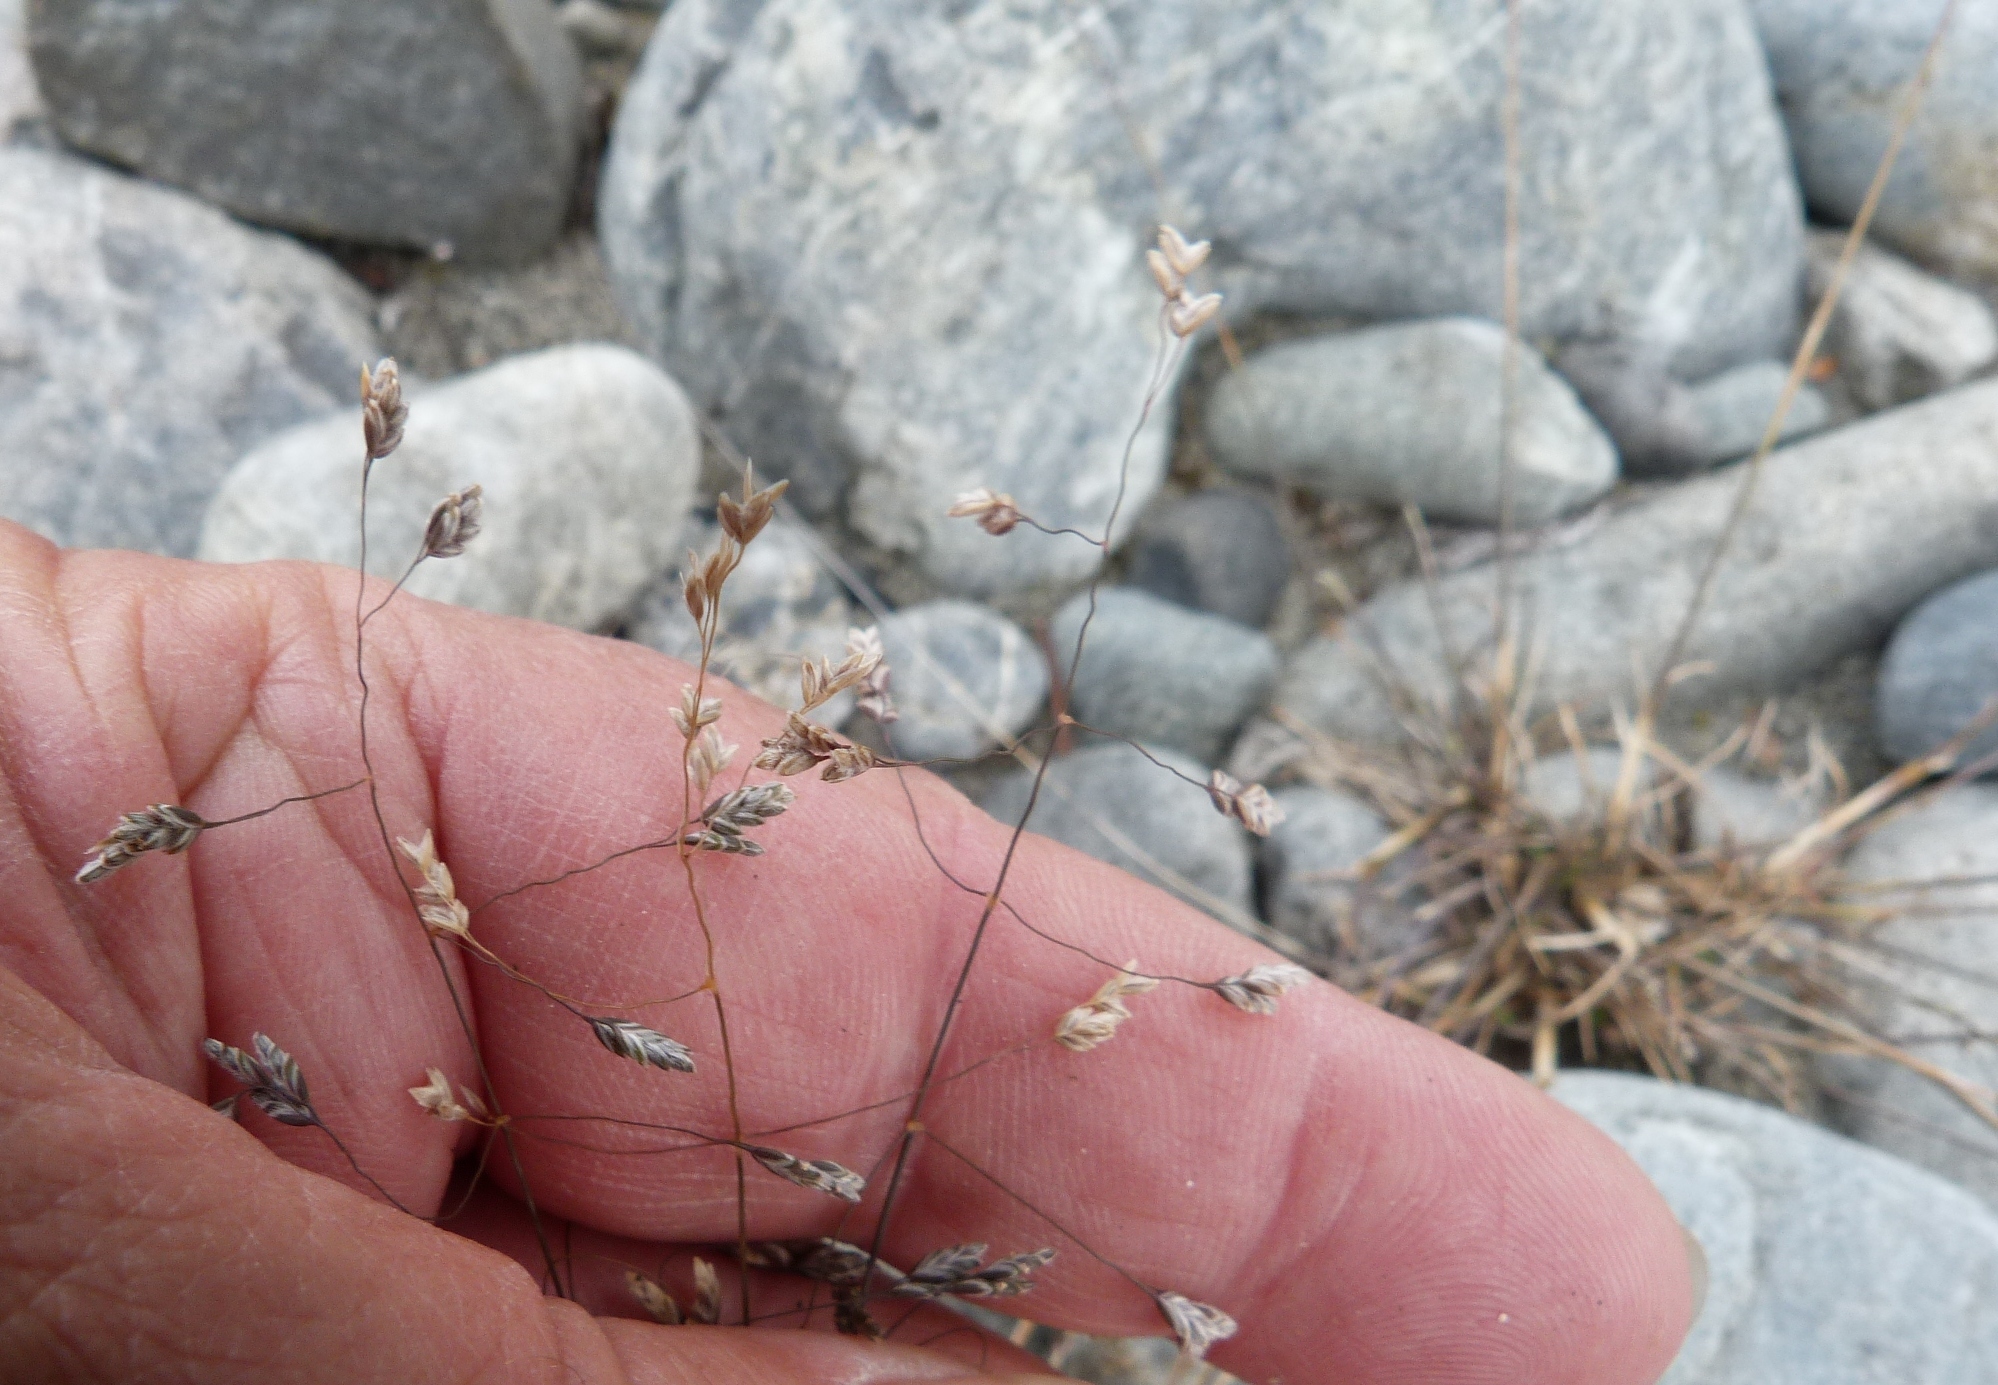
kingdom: Plantae
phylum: Tracheophyta
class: Liliopsida
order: Poales
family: Poaceae
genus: Poa
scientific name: Poa lindsayi
